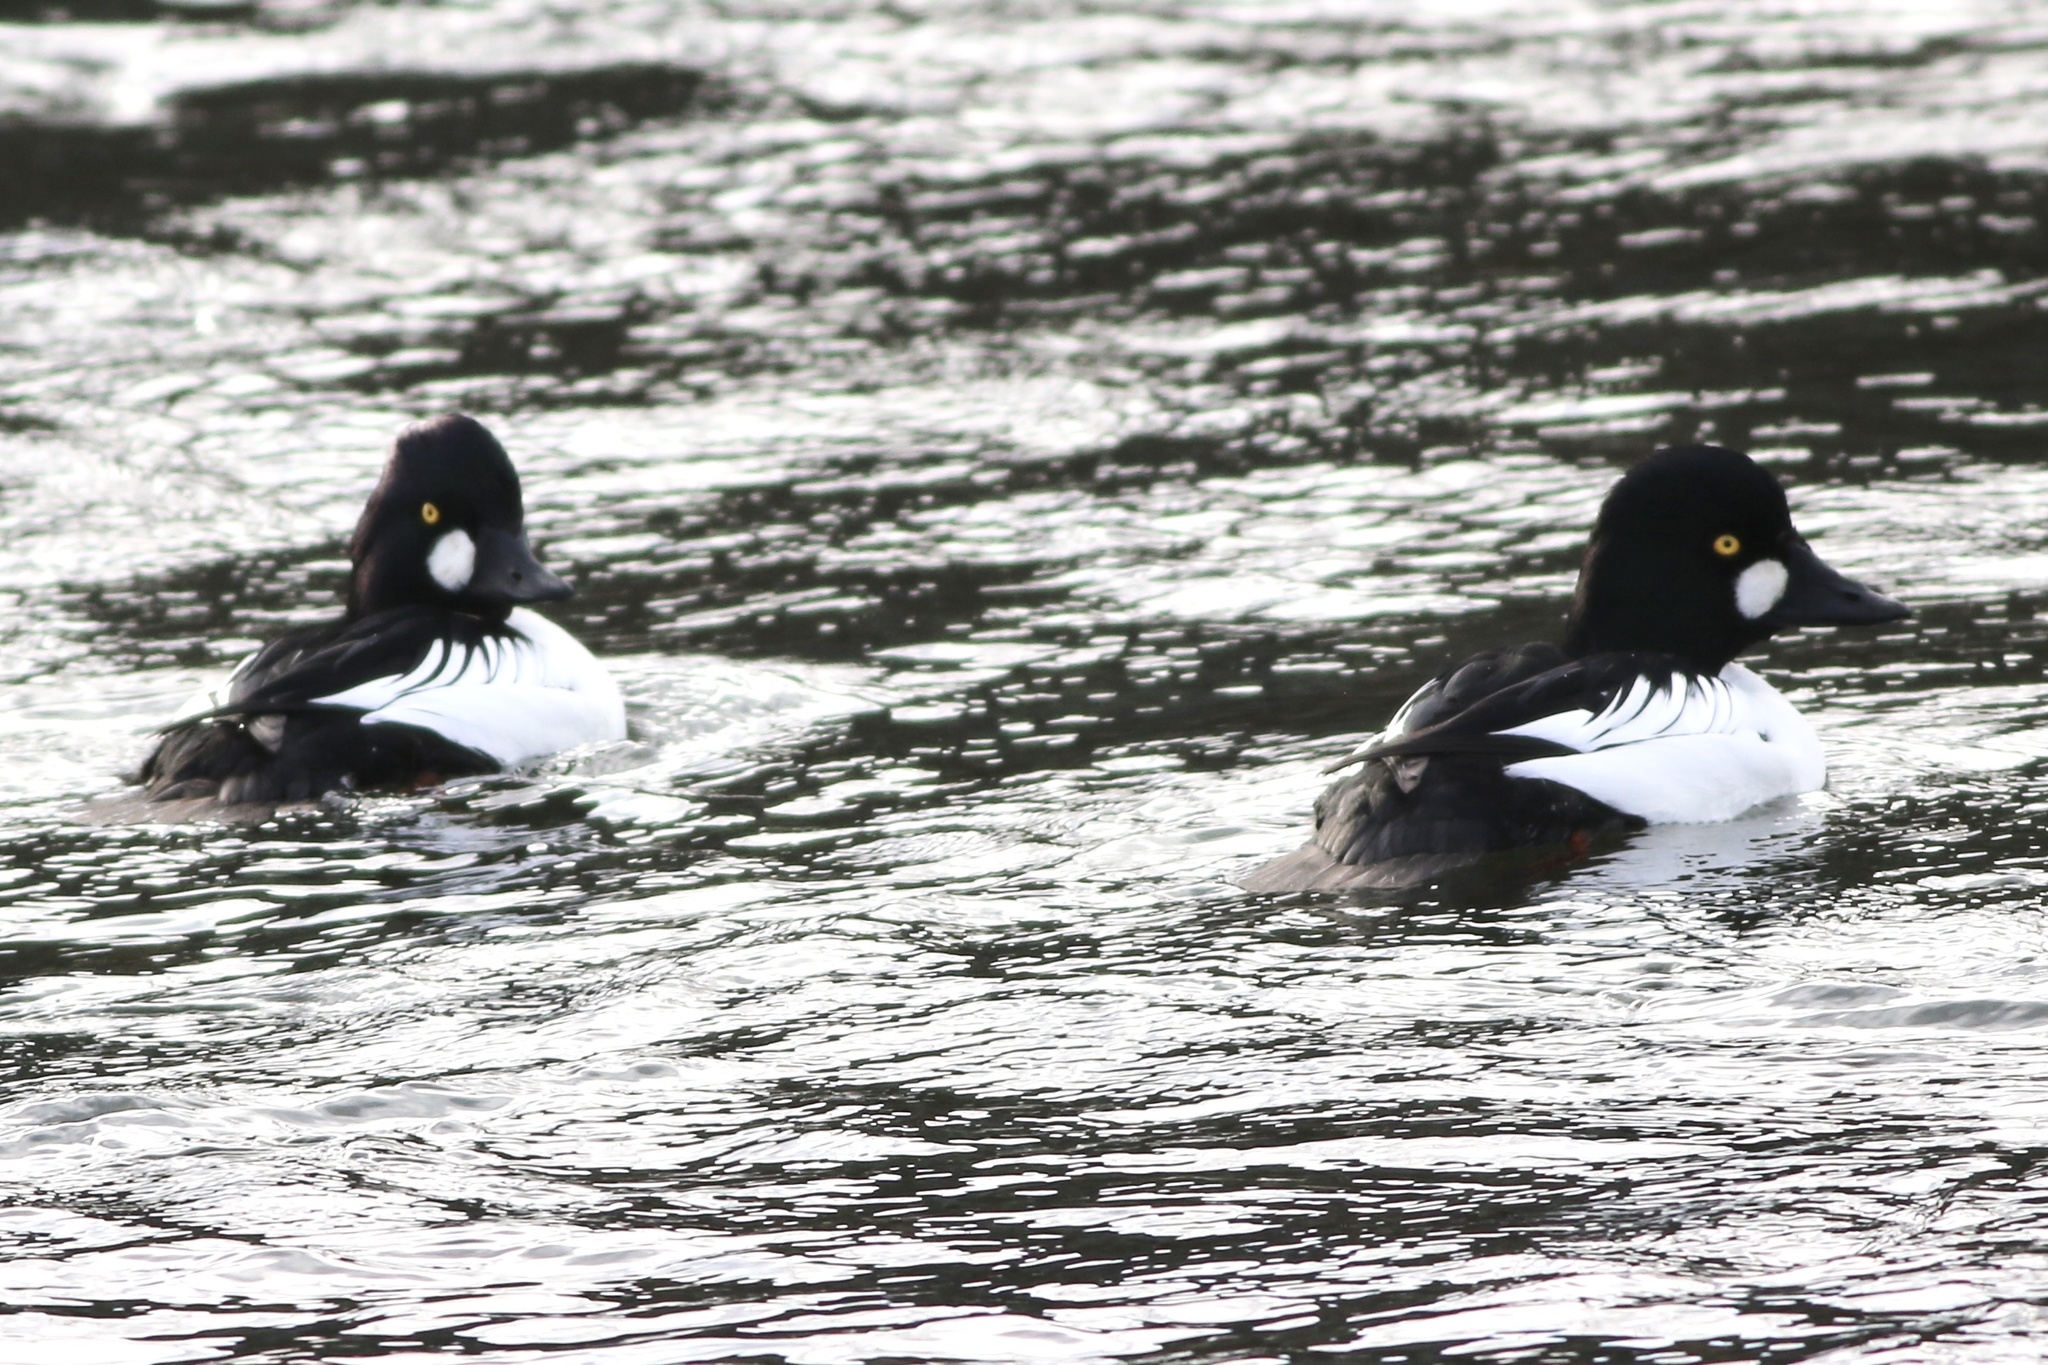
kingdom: Animalia
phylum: Chordata
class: Aves
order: Anseriformes
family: Anatidae
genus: Bucephala
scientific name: Bucephala clangula
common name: Common goldeneye
